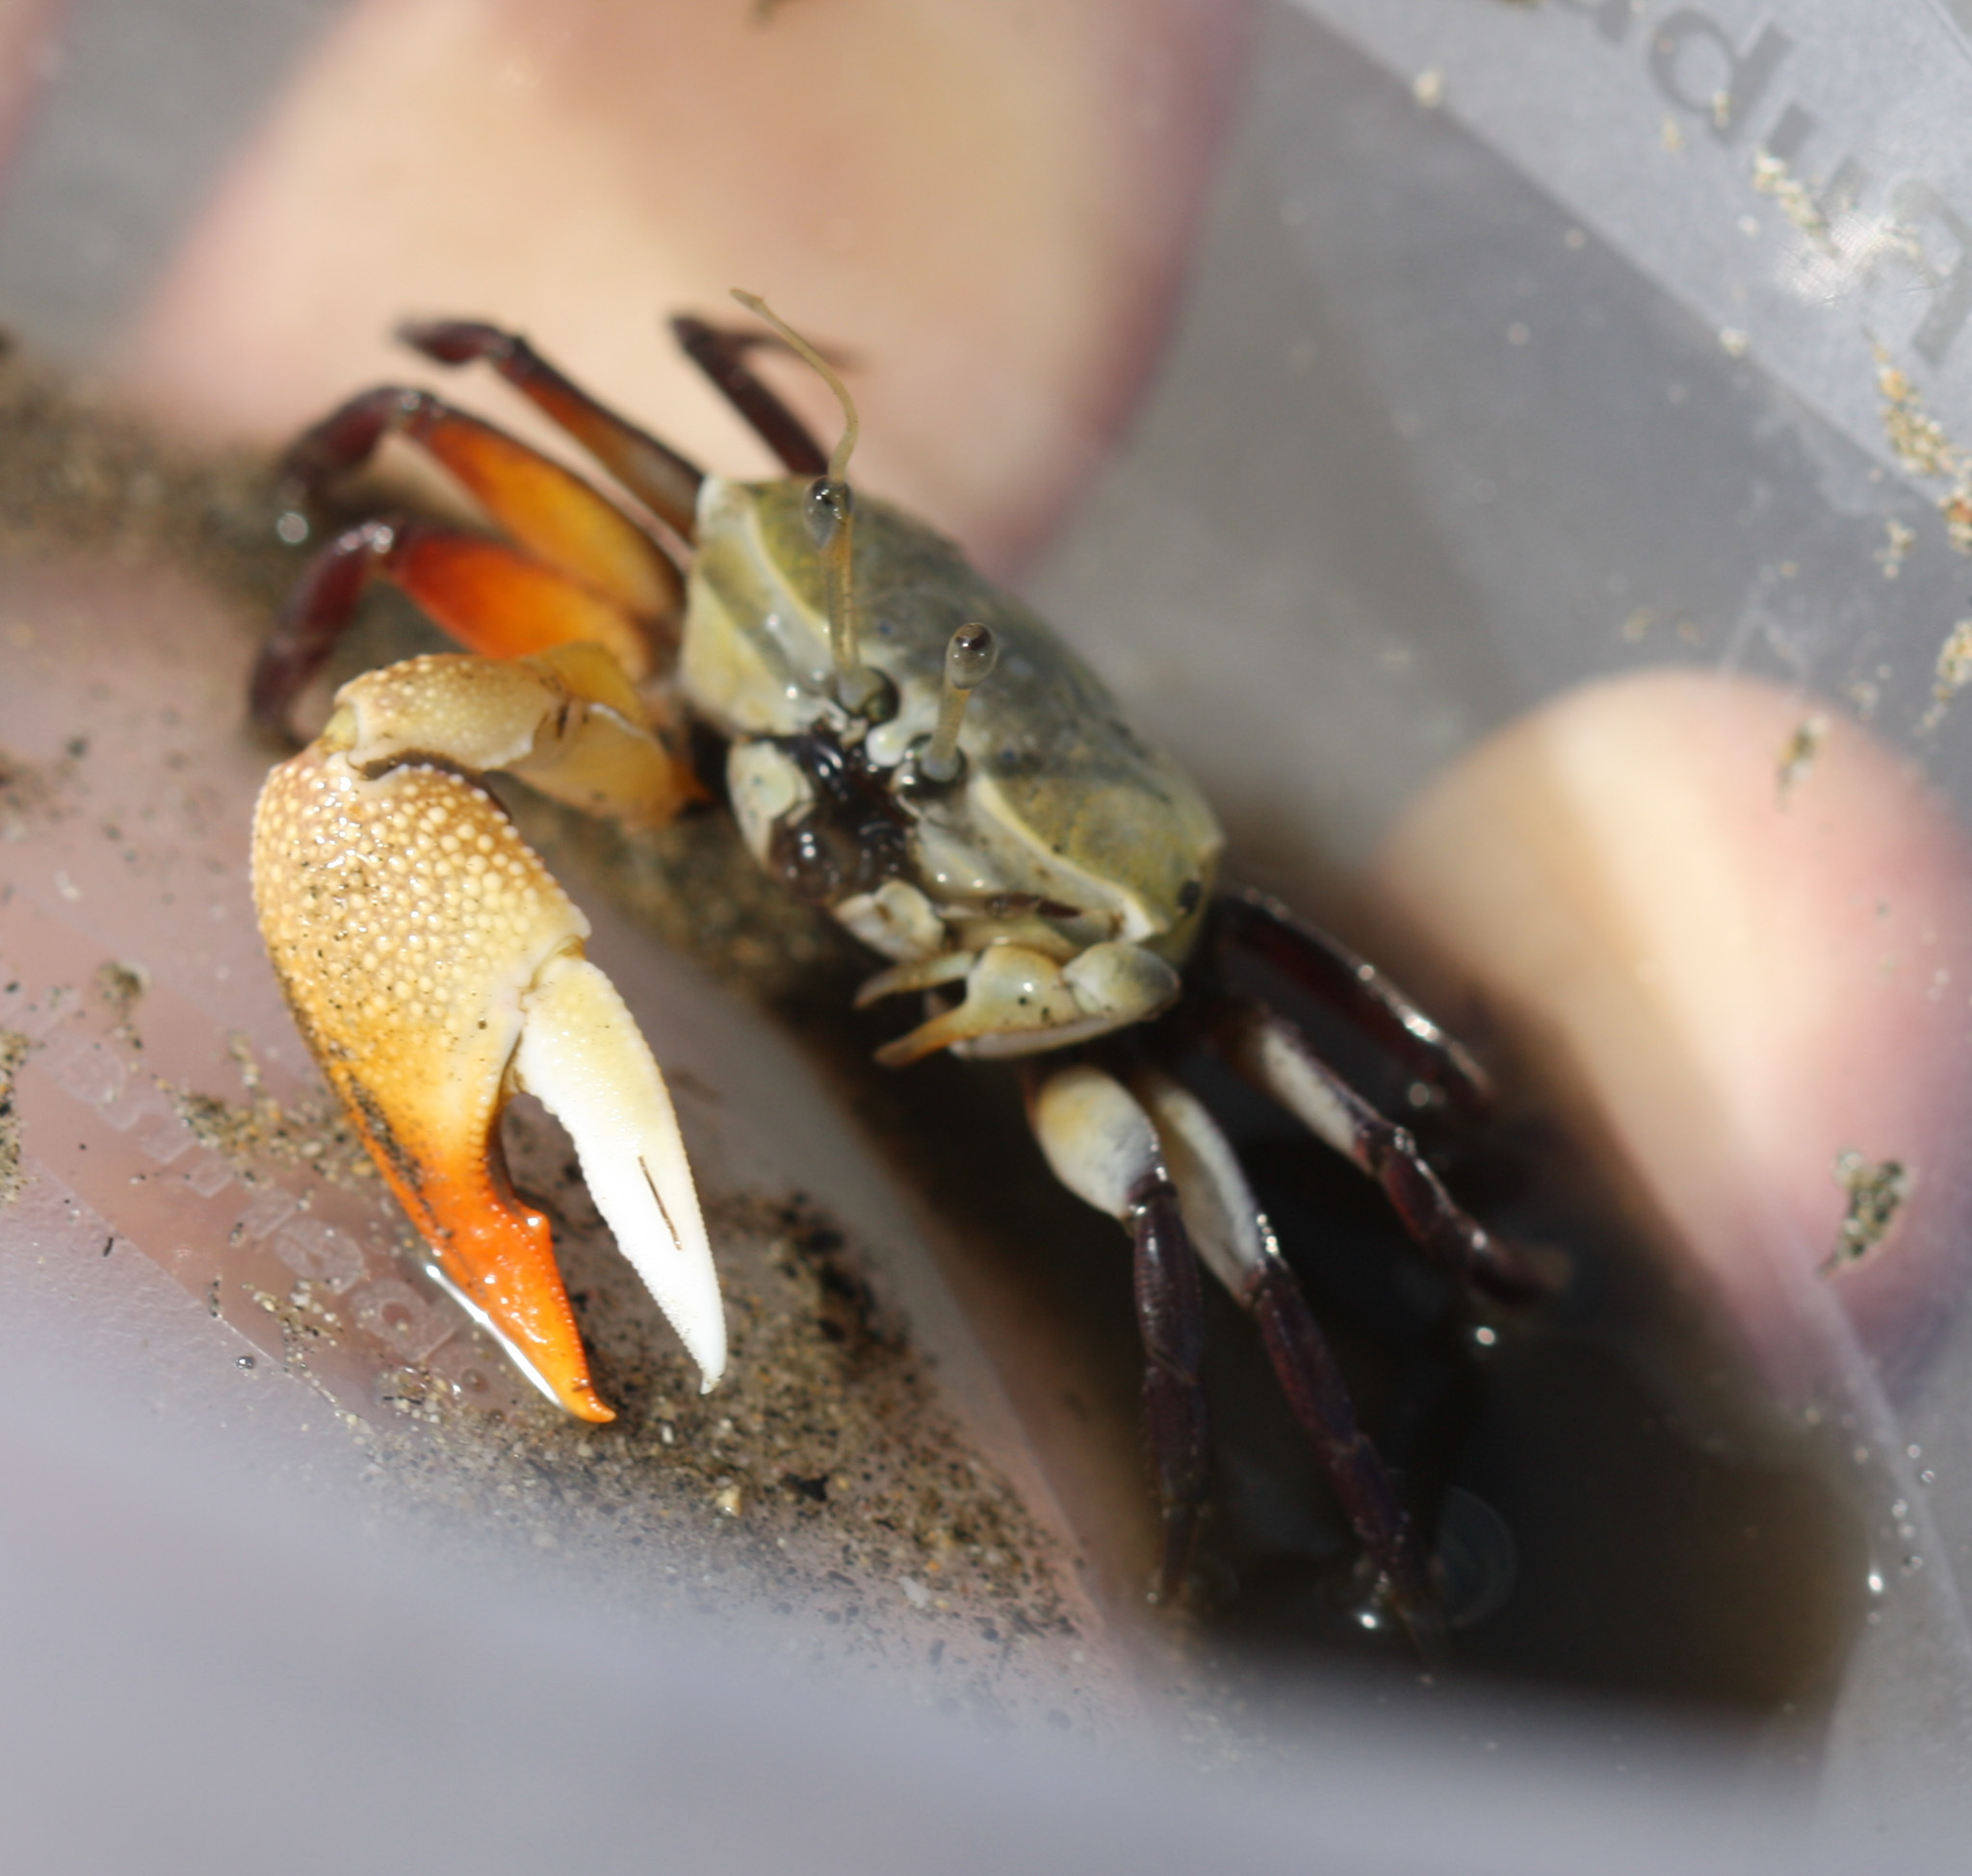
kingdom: Animalia
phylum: Arthropoda
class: Malacostraca
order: Decapoda
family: Ocypodidae
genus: Uca
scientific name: Uca stylifera
